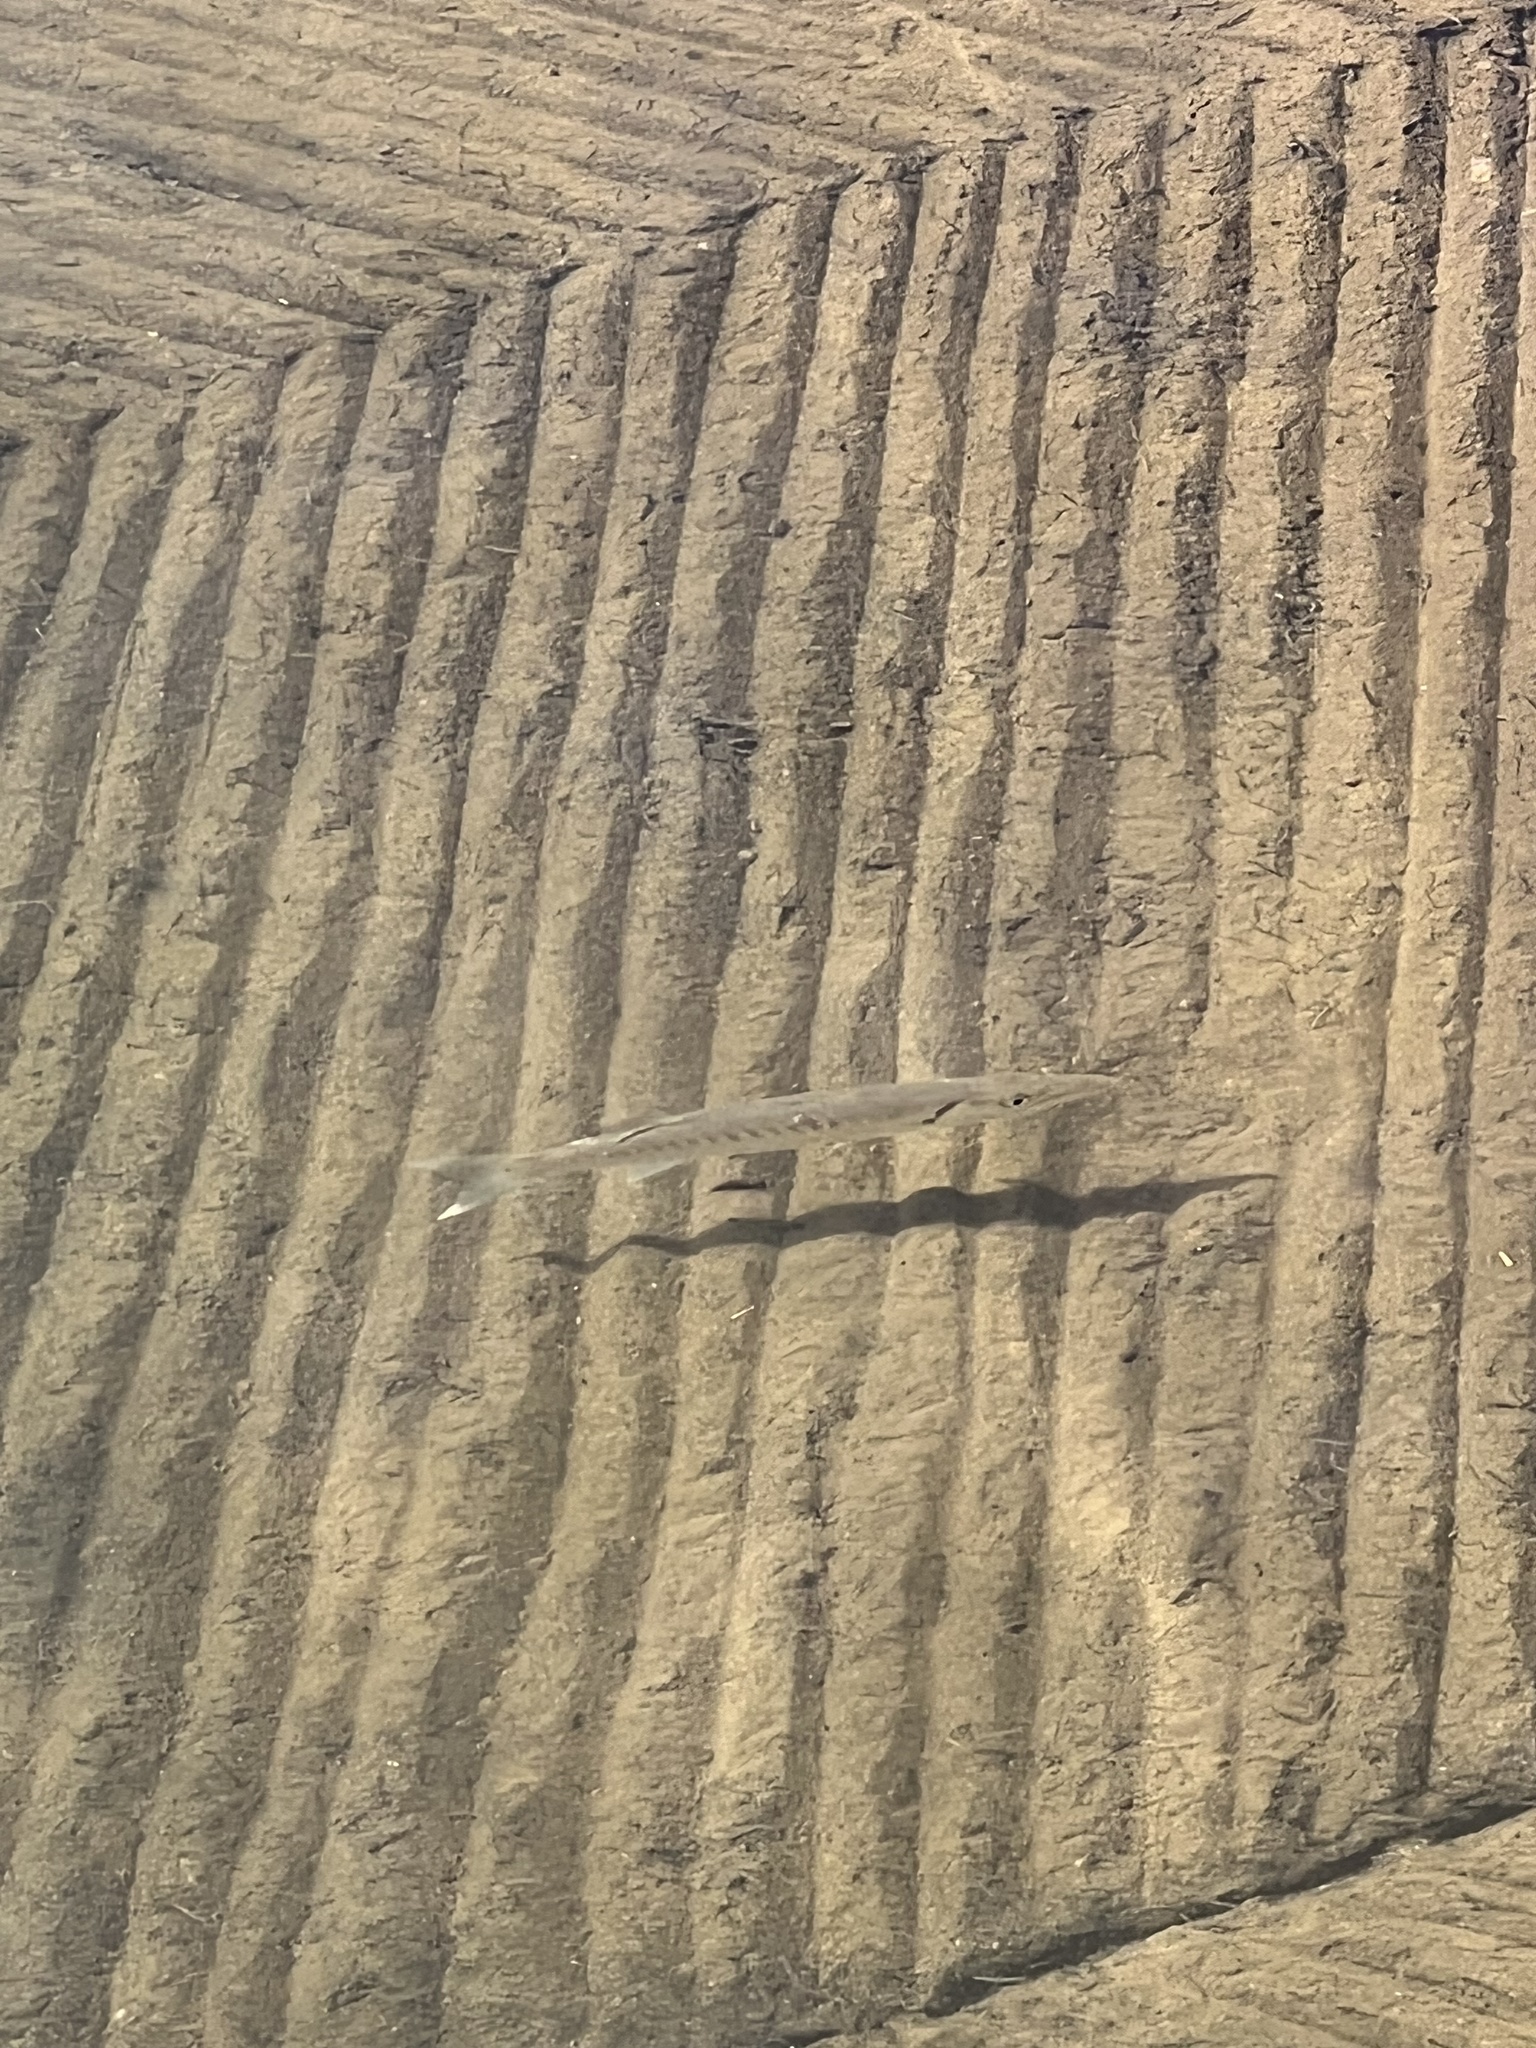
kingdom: Animalia
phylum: Chordata
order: Perciformes
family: Sphyraenidae
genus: Sphyraena
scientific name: Sphyraena barracuda
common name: Great barracuda
